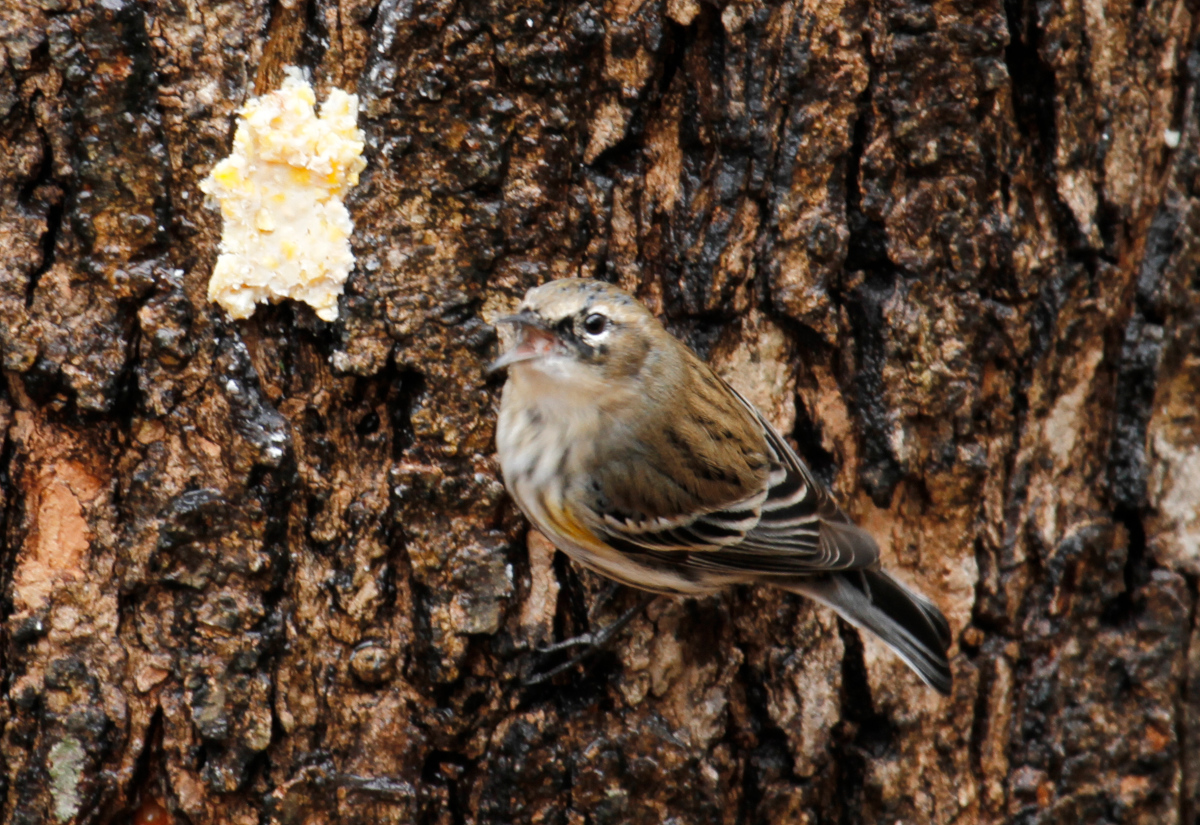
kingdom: Animalia
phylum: Chordata
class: Aves
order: Passeriformes
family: Parulidae
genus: Setophaga
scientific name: Setophaga coronata
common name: Myrtle warbler
